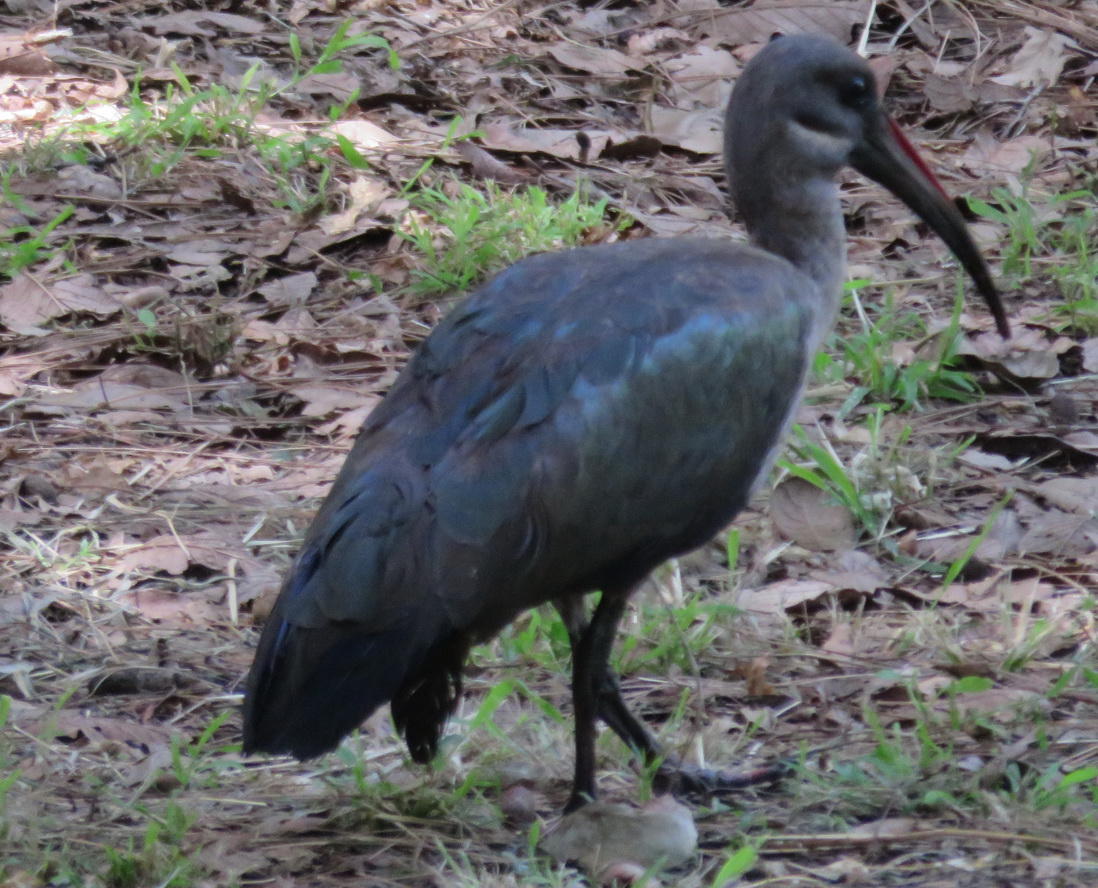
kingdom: Animalia
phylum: Chordata
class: Aves
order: Pelecaniformes
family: Threskiornithidae
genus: Bostrychia
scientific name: Bostrychia hagedash
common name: Hadada ibis
